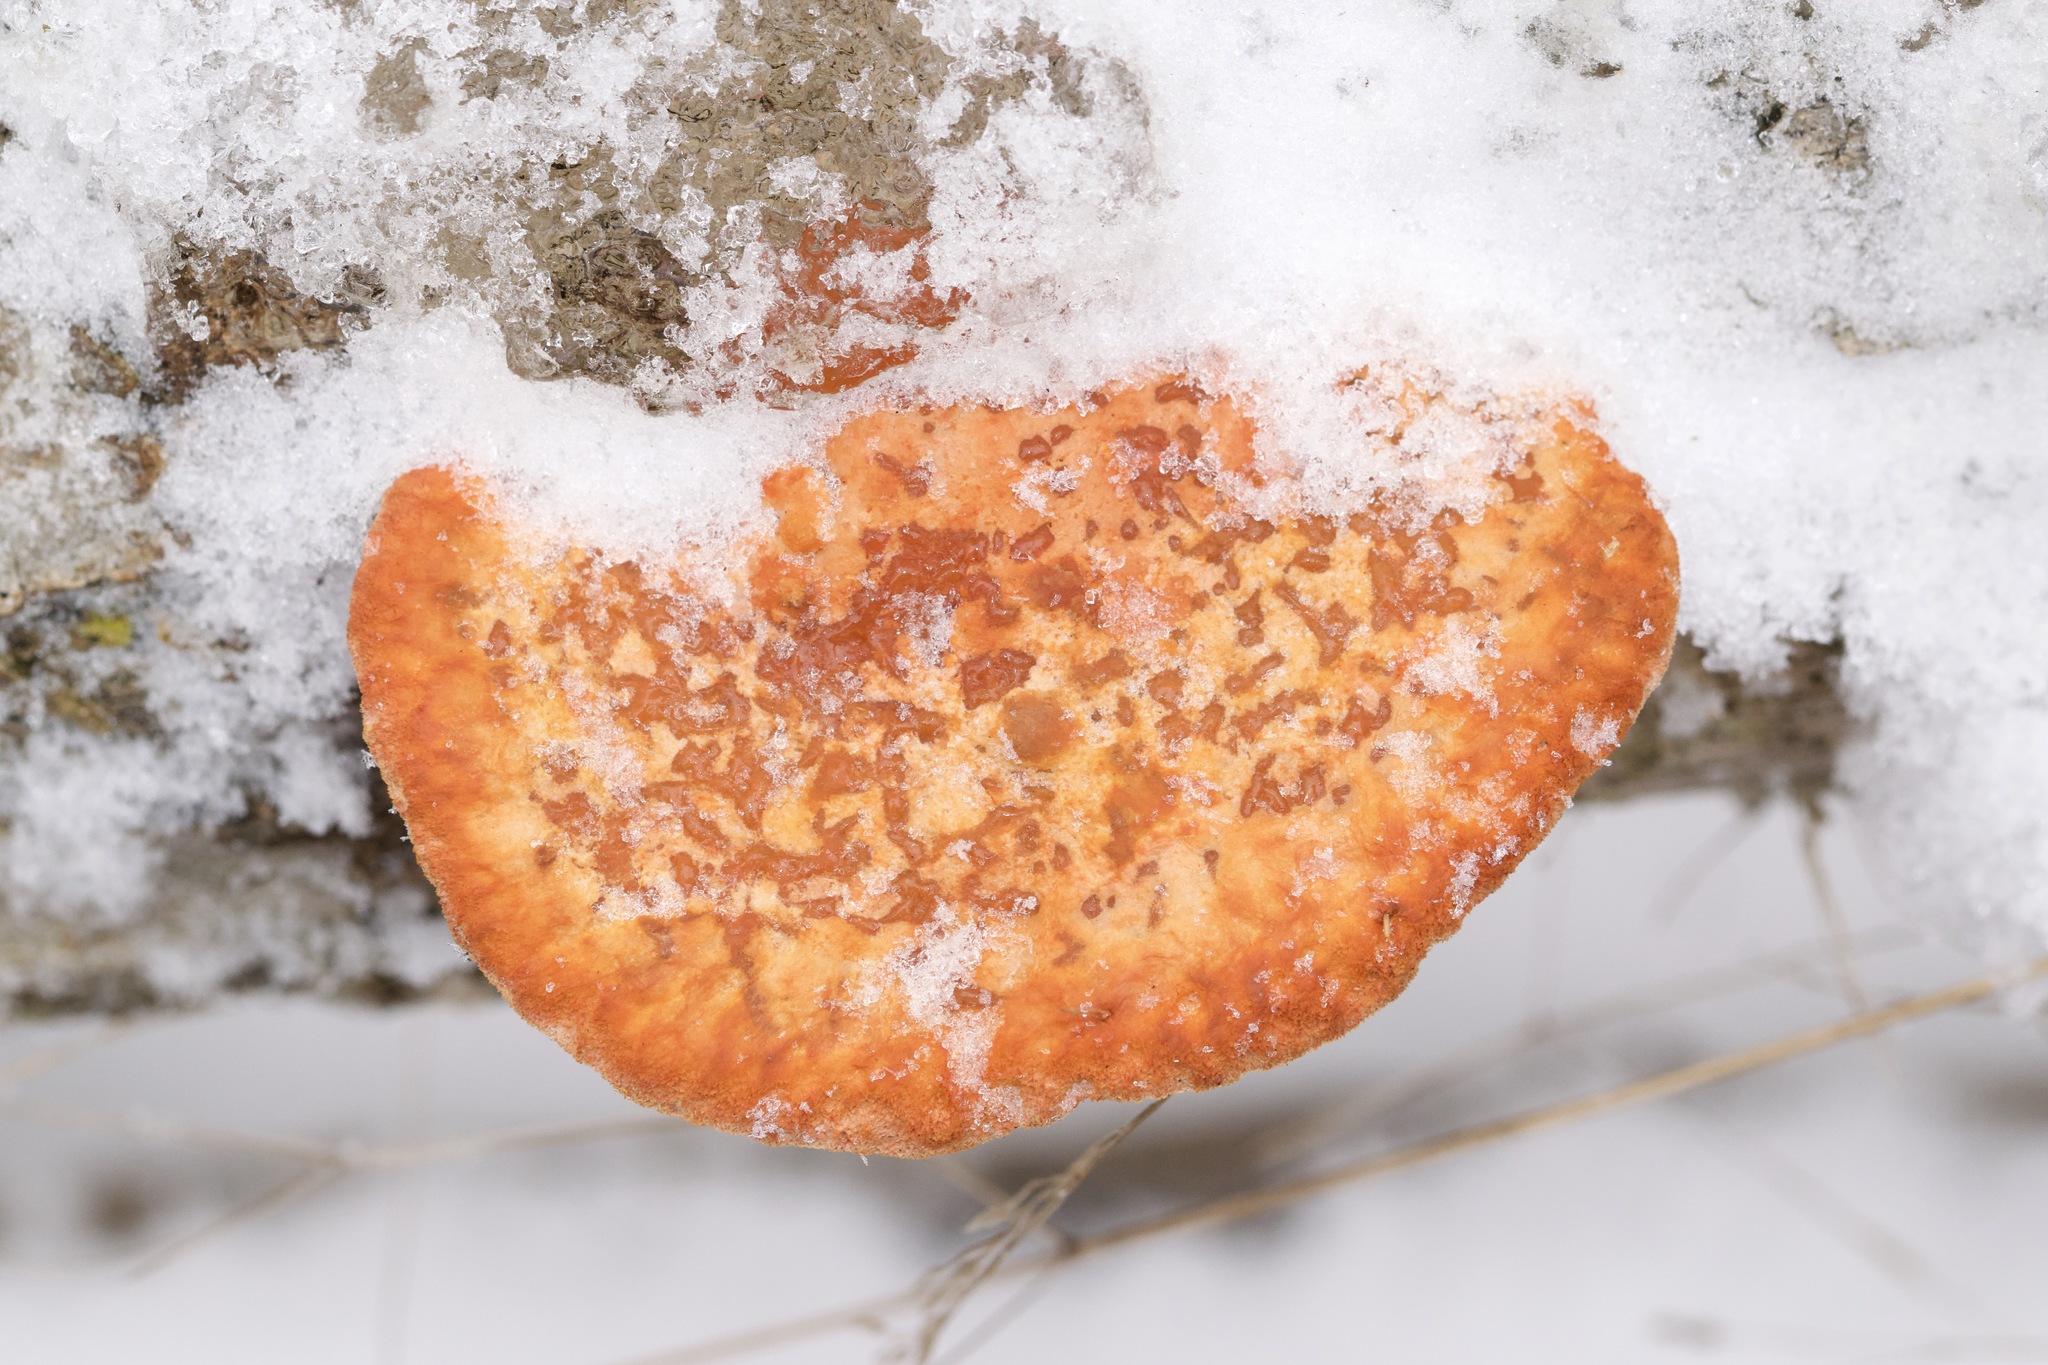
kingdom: Fungi
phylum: Basidiomycota
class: Agaricomycetes
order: Polyporales
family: Polyporaceae
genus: Trametes
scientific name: Trametes cinnabarina
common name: Northern cinnabar polypore
